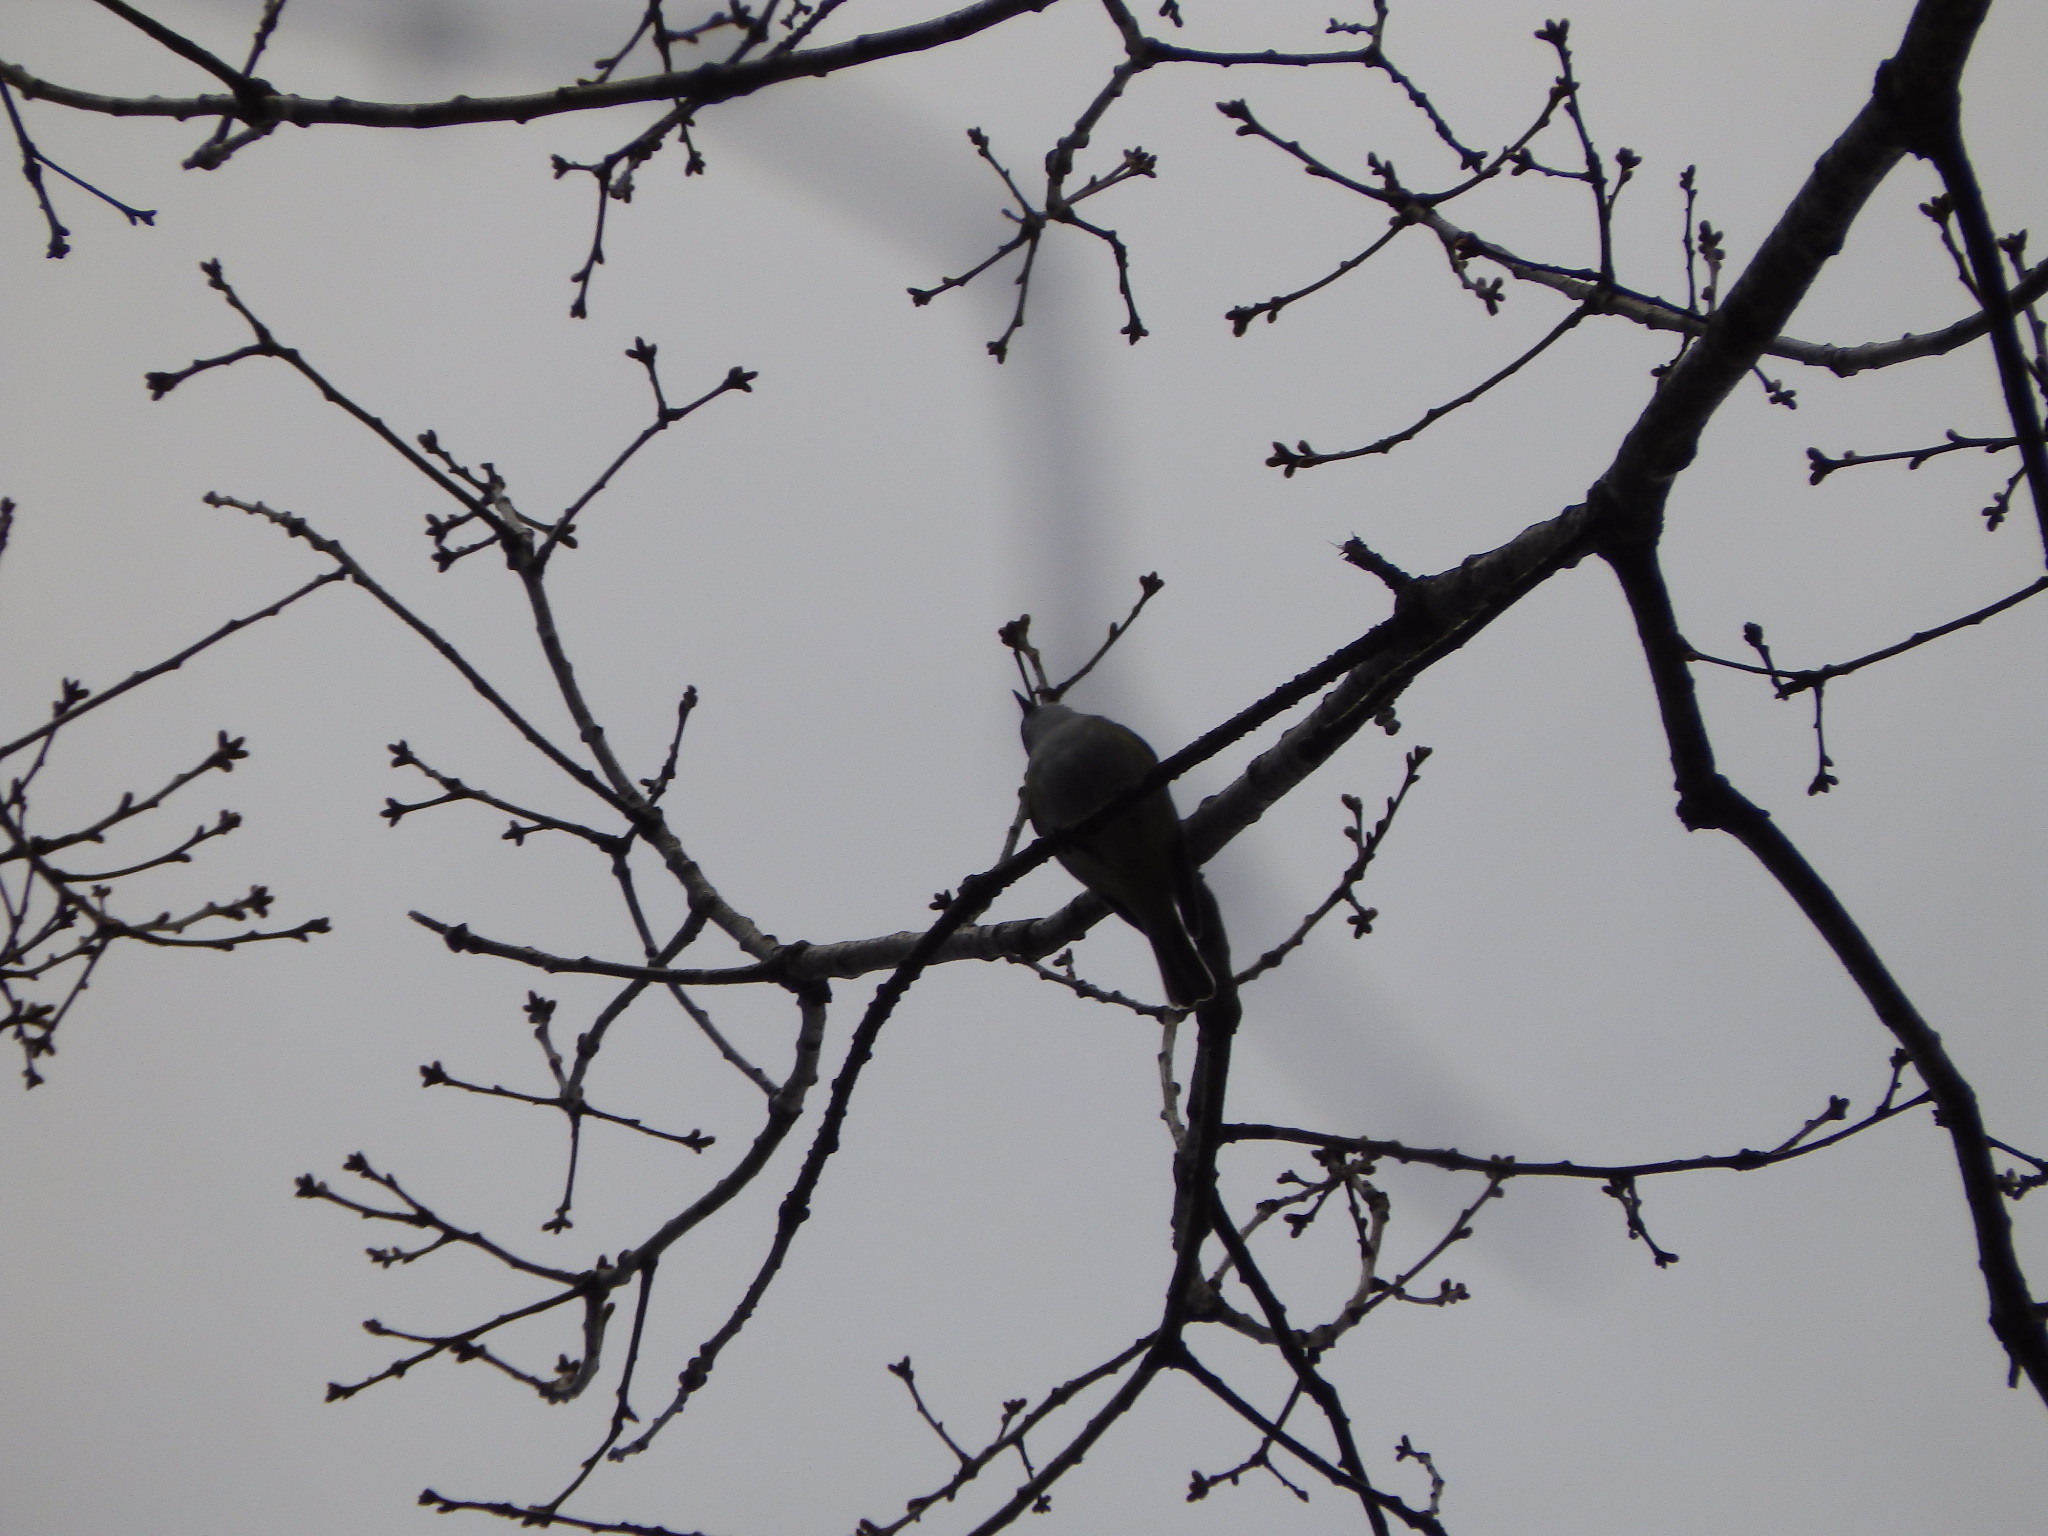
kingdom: Animalia
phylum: Chordata
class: Aves
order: Passeriformes
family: Vireonidae
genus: Vireo
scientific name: Vireo solitarius
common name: Blue-headed vireo
